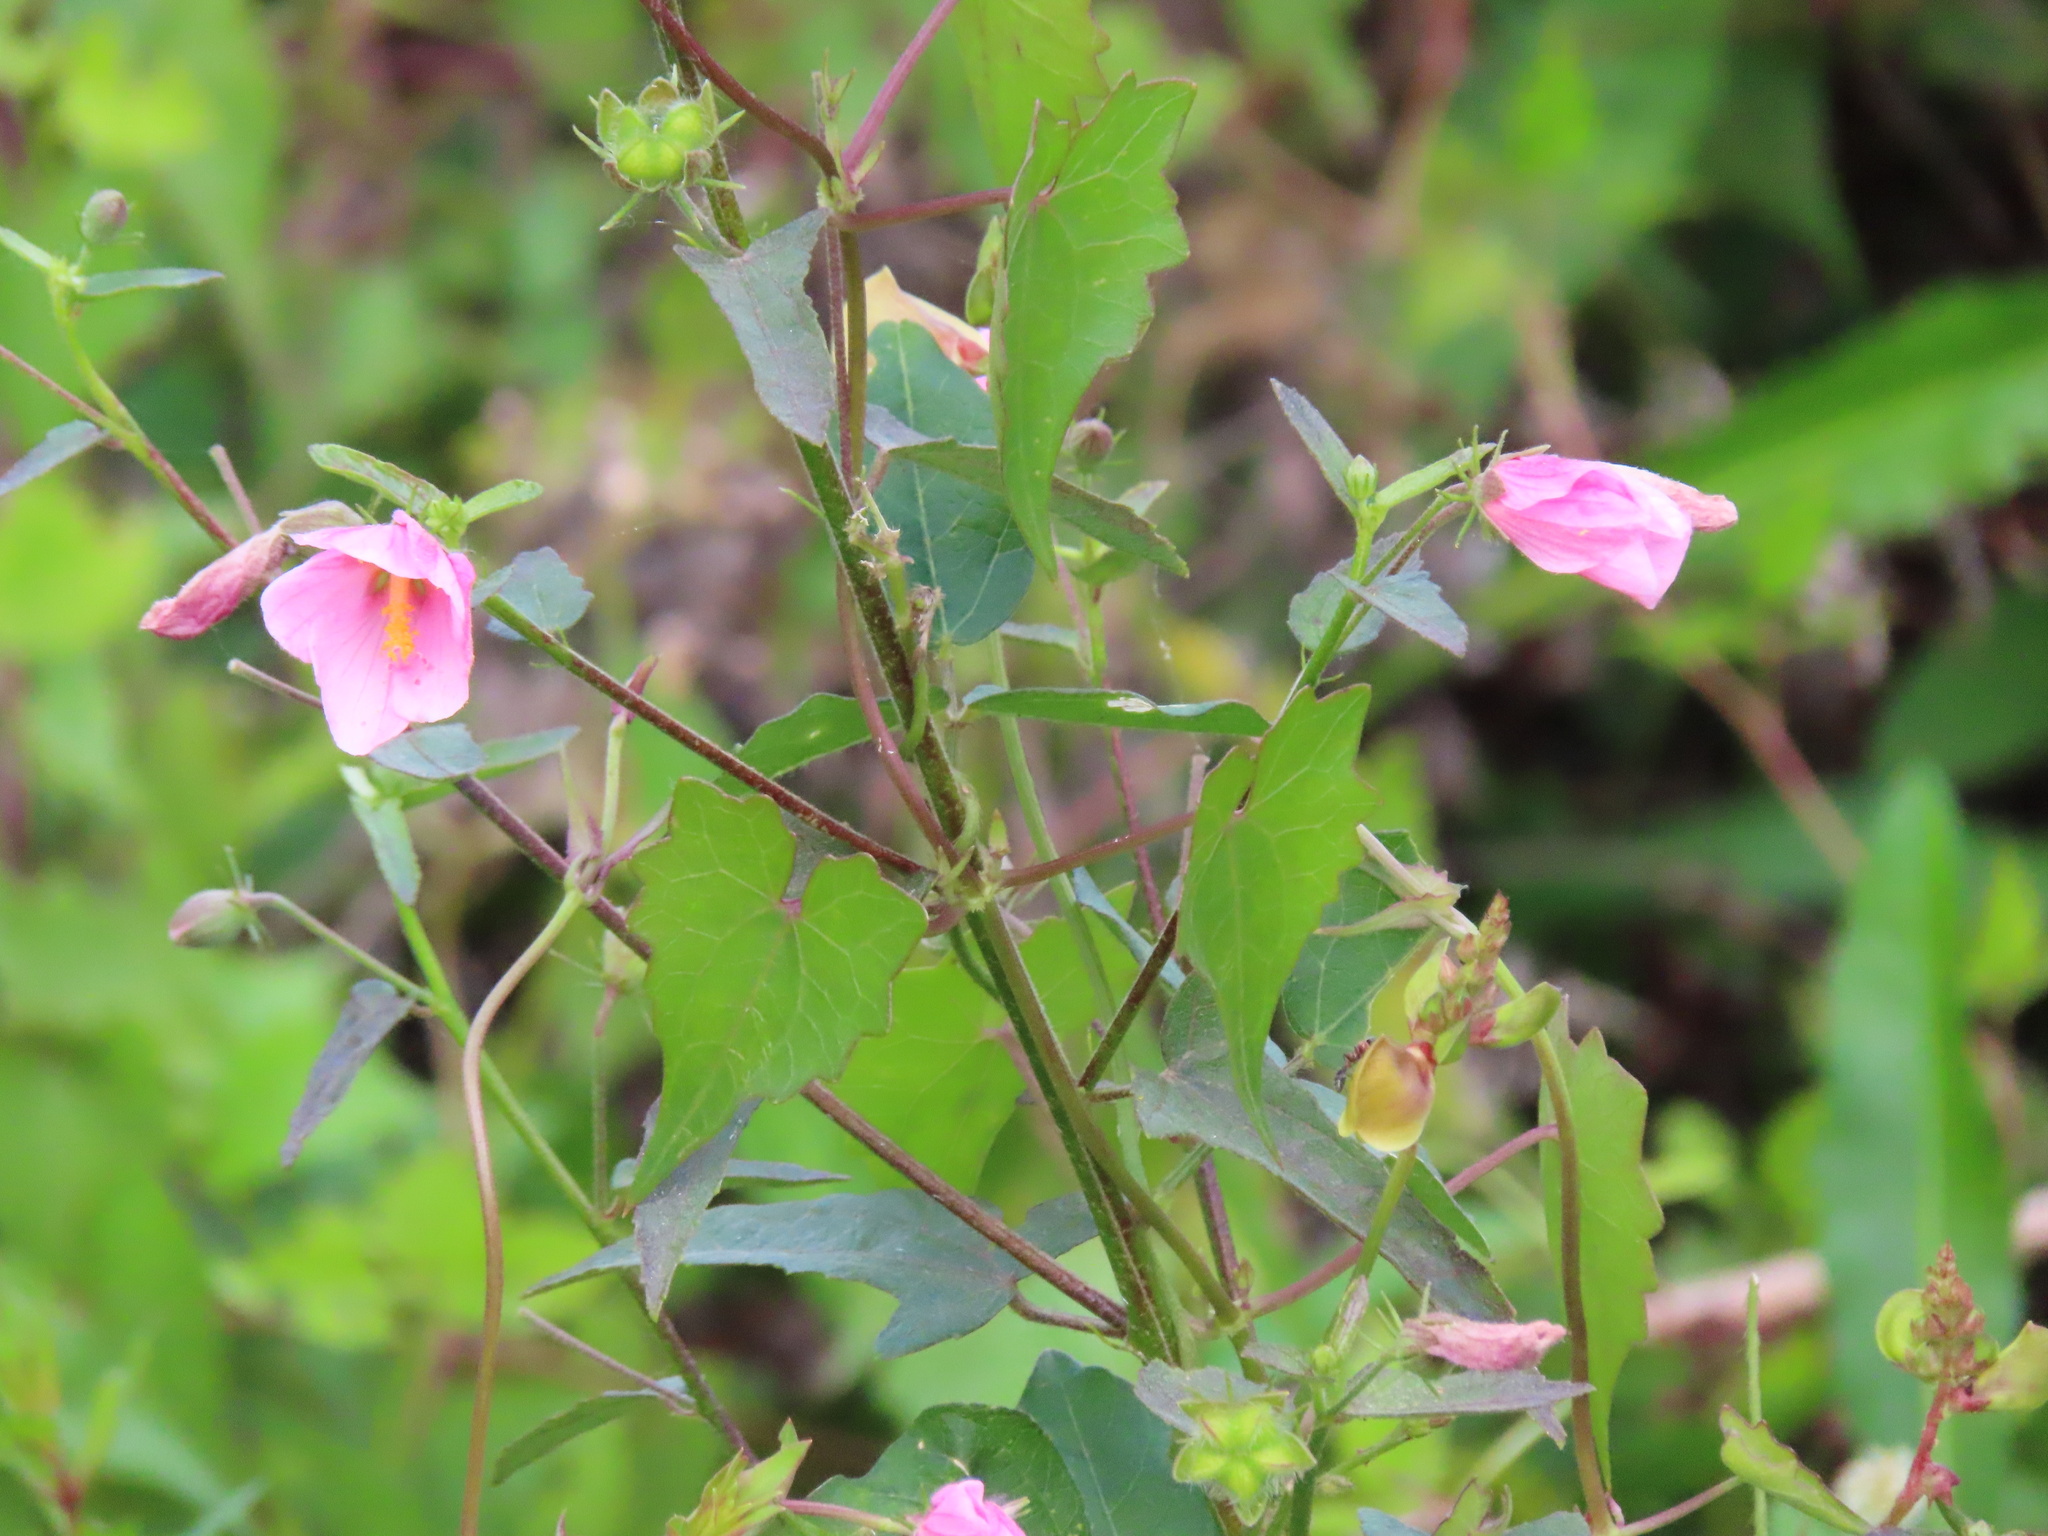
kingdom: Plantae
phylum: Tracheophyta
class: Magnoliopsida
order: Malvales
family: Malvaceae
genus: Kosteletzkya
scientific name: Kosteletzkya pentacarpos
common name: Virginia saltmarsh mallow
